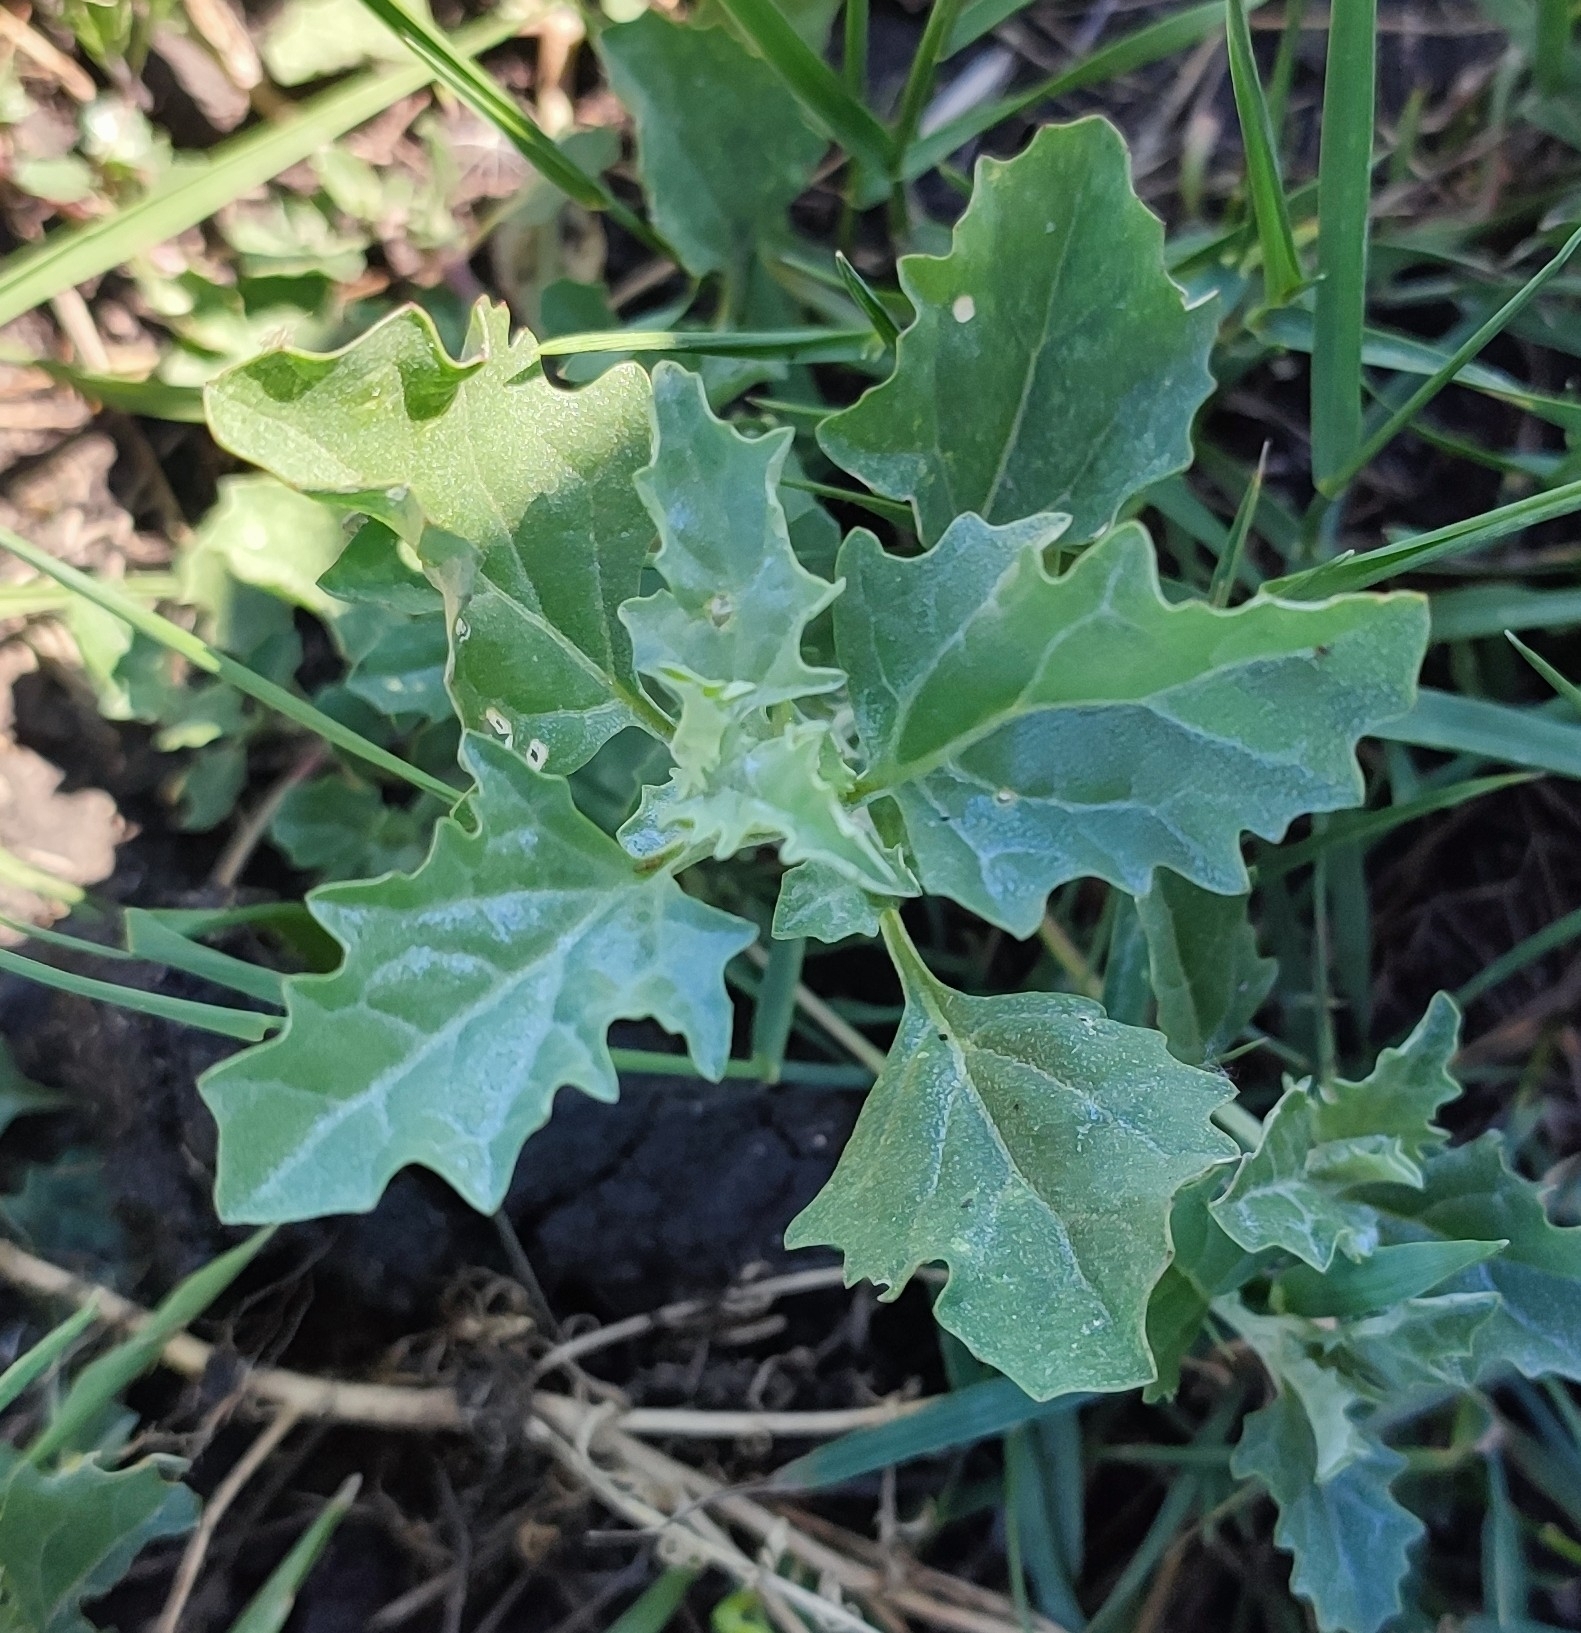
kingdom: Plantae
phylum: Tracheophyta
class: Magnoliopsida
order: Caryophyllales
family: Amaranthaceae
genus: Atriplex
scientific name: Atriplex tatarica
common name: Tatarian orache
